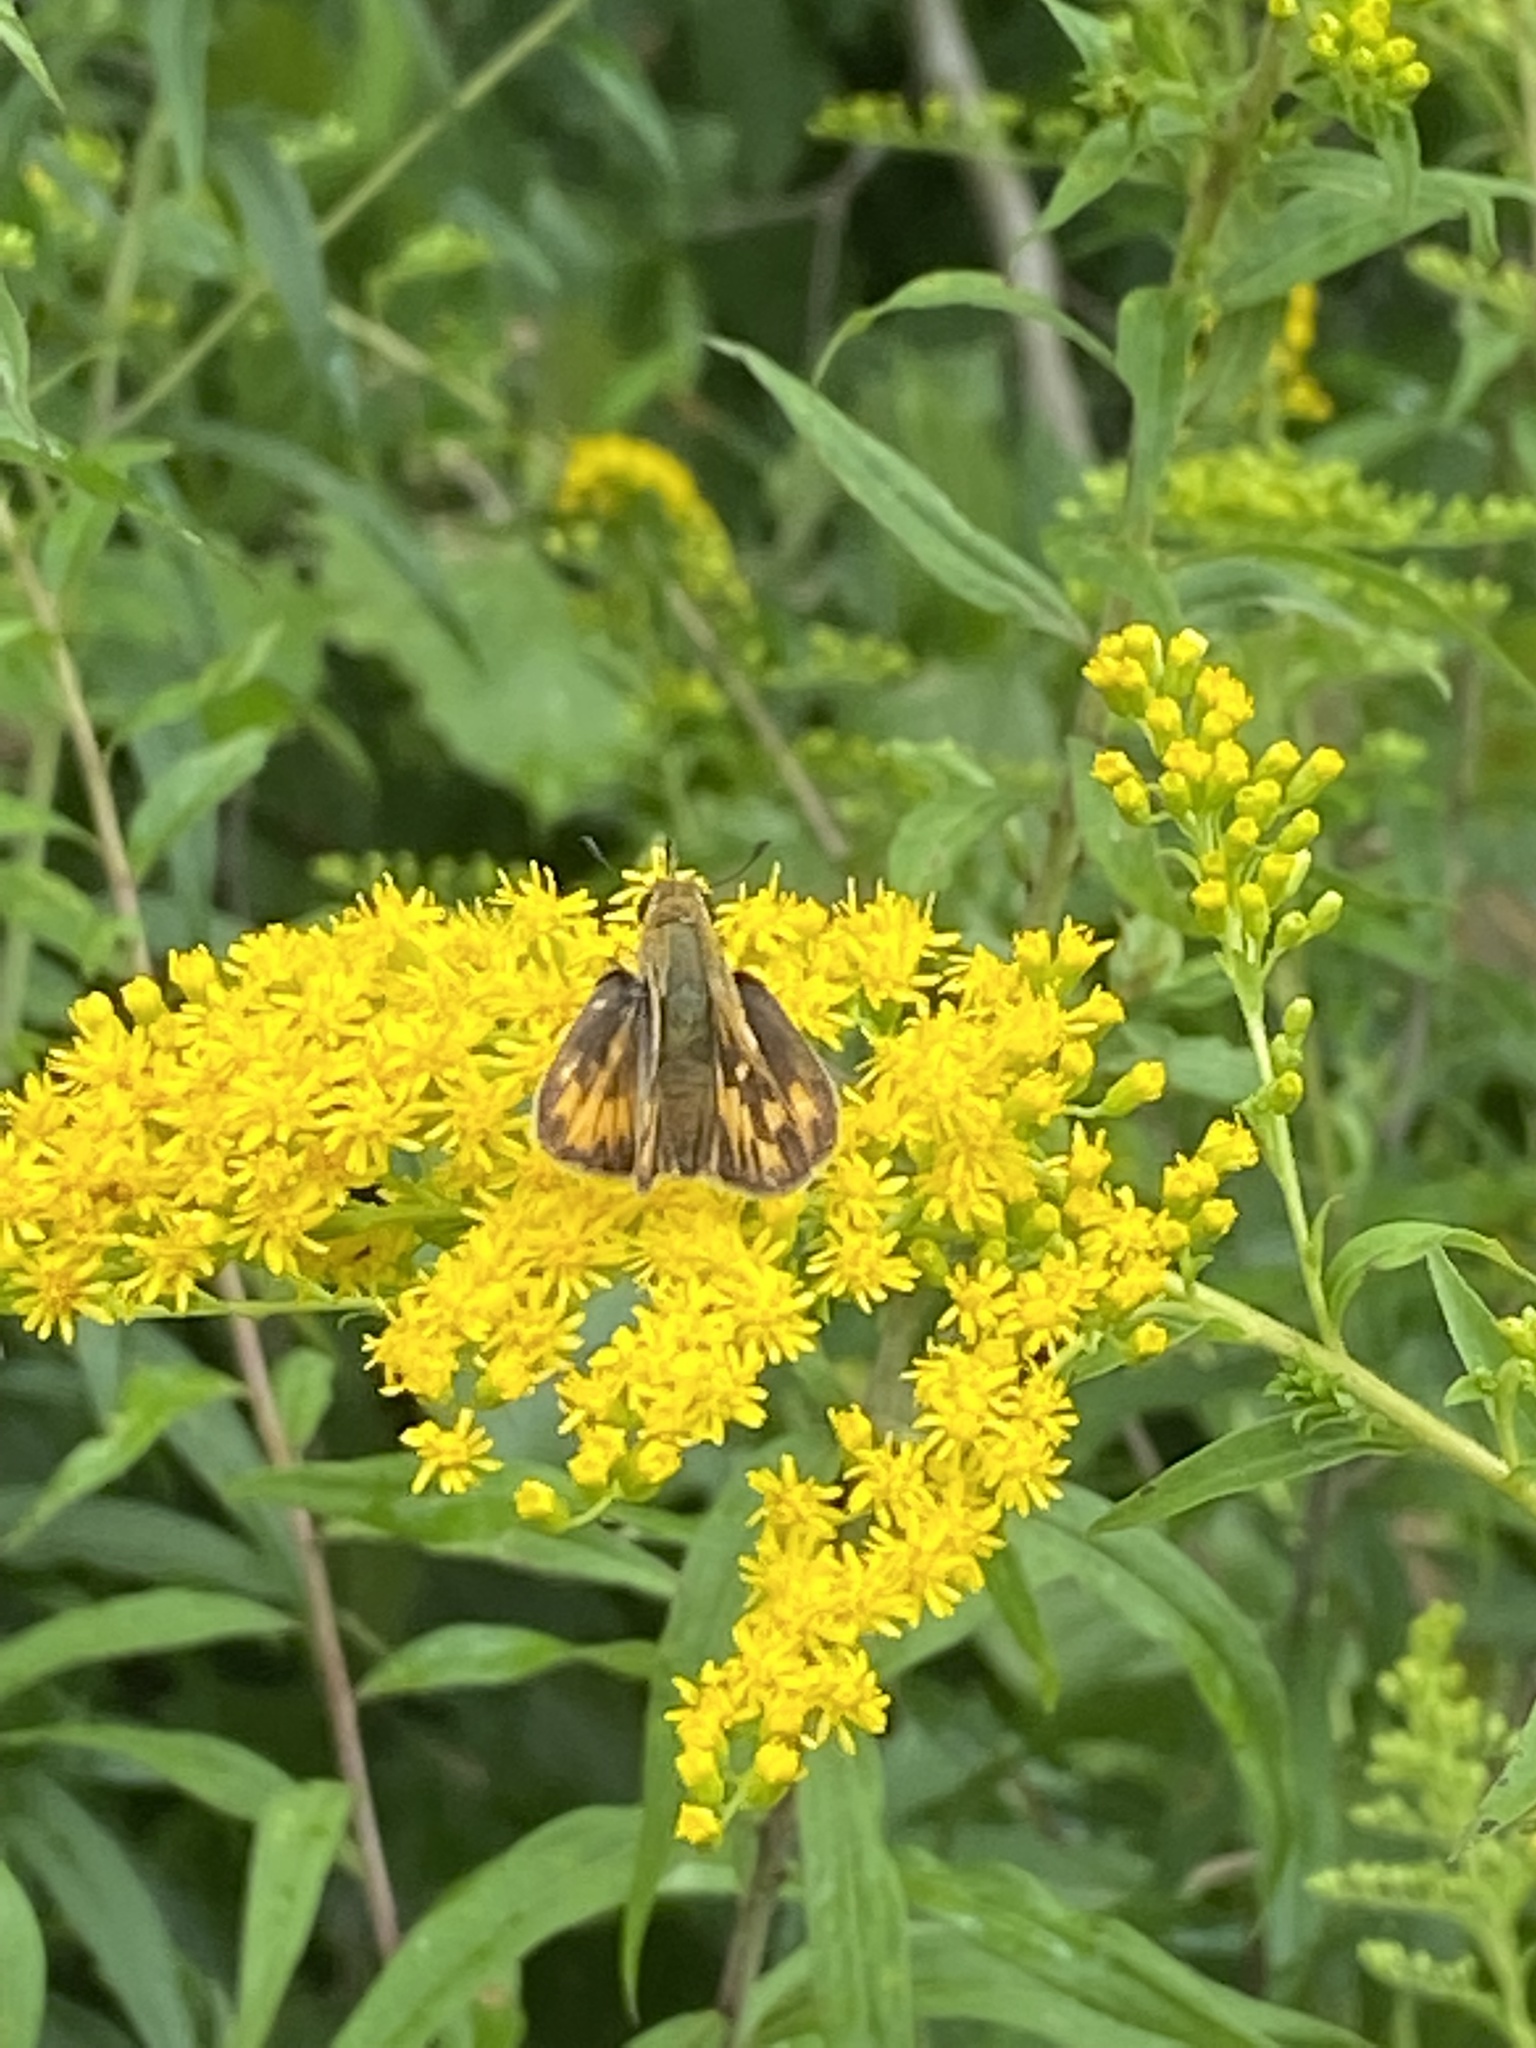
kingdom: Animalia
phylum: Arthropoda
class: Insecta
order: Lepidoptera
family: Hesperiidae
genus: Hylephila
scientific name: Hylephila phyleus
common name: Fiery skipper
